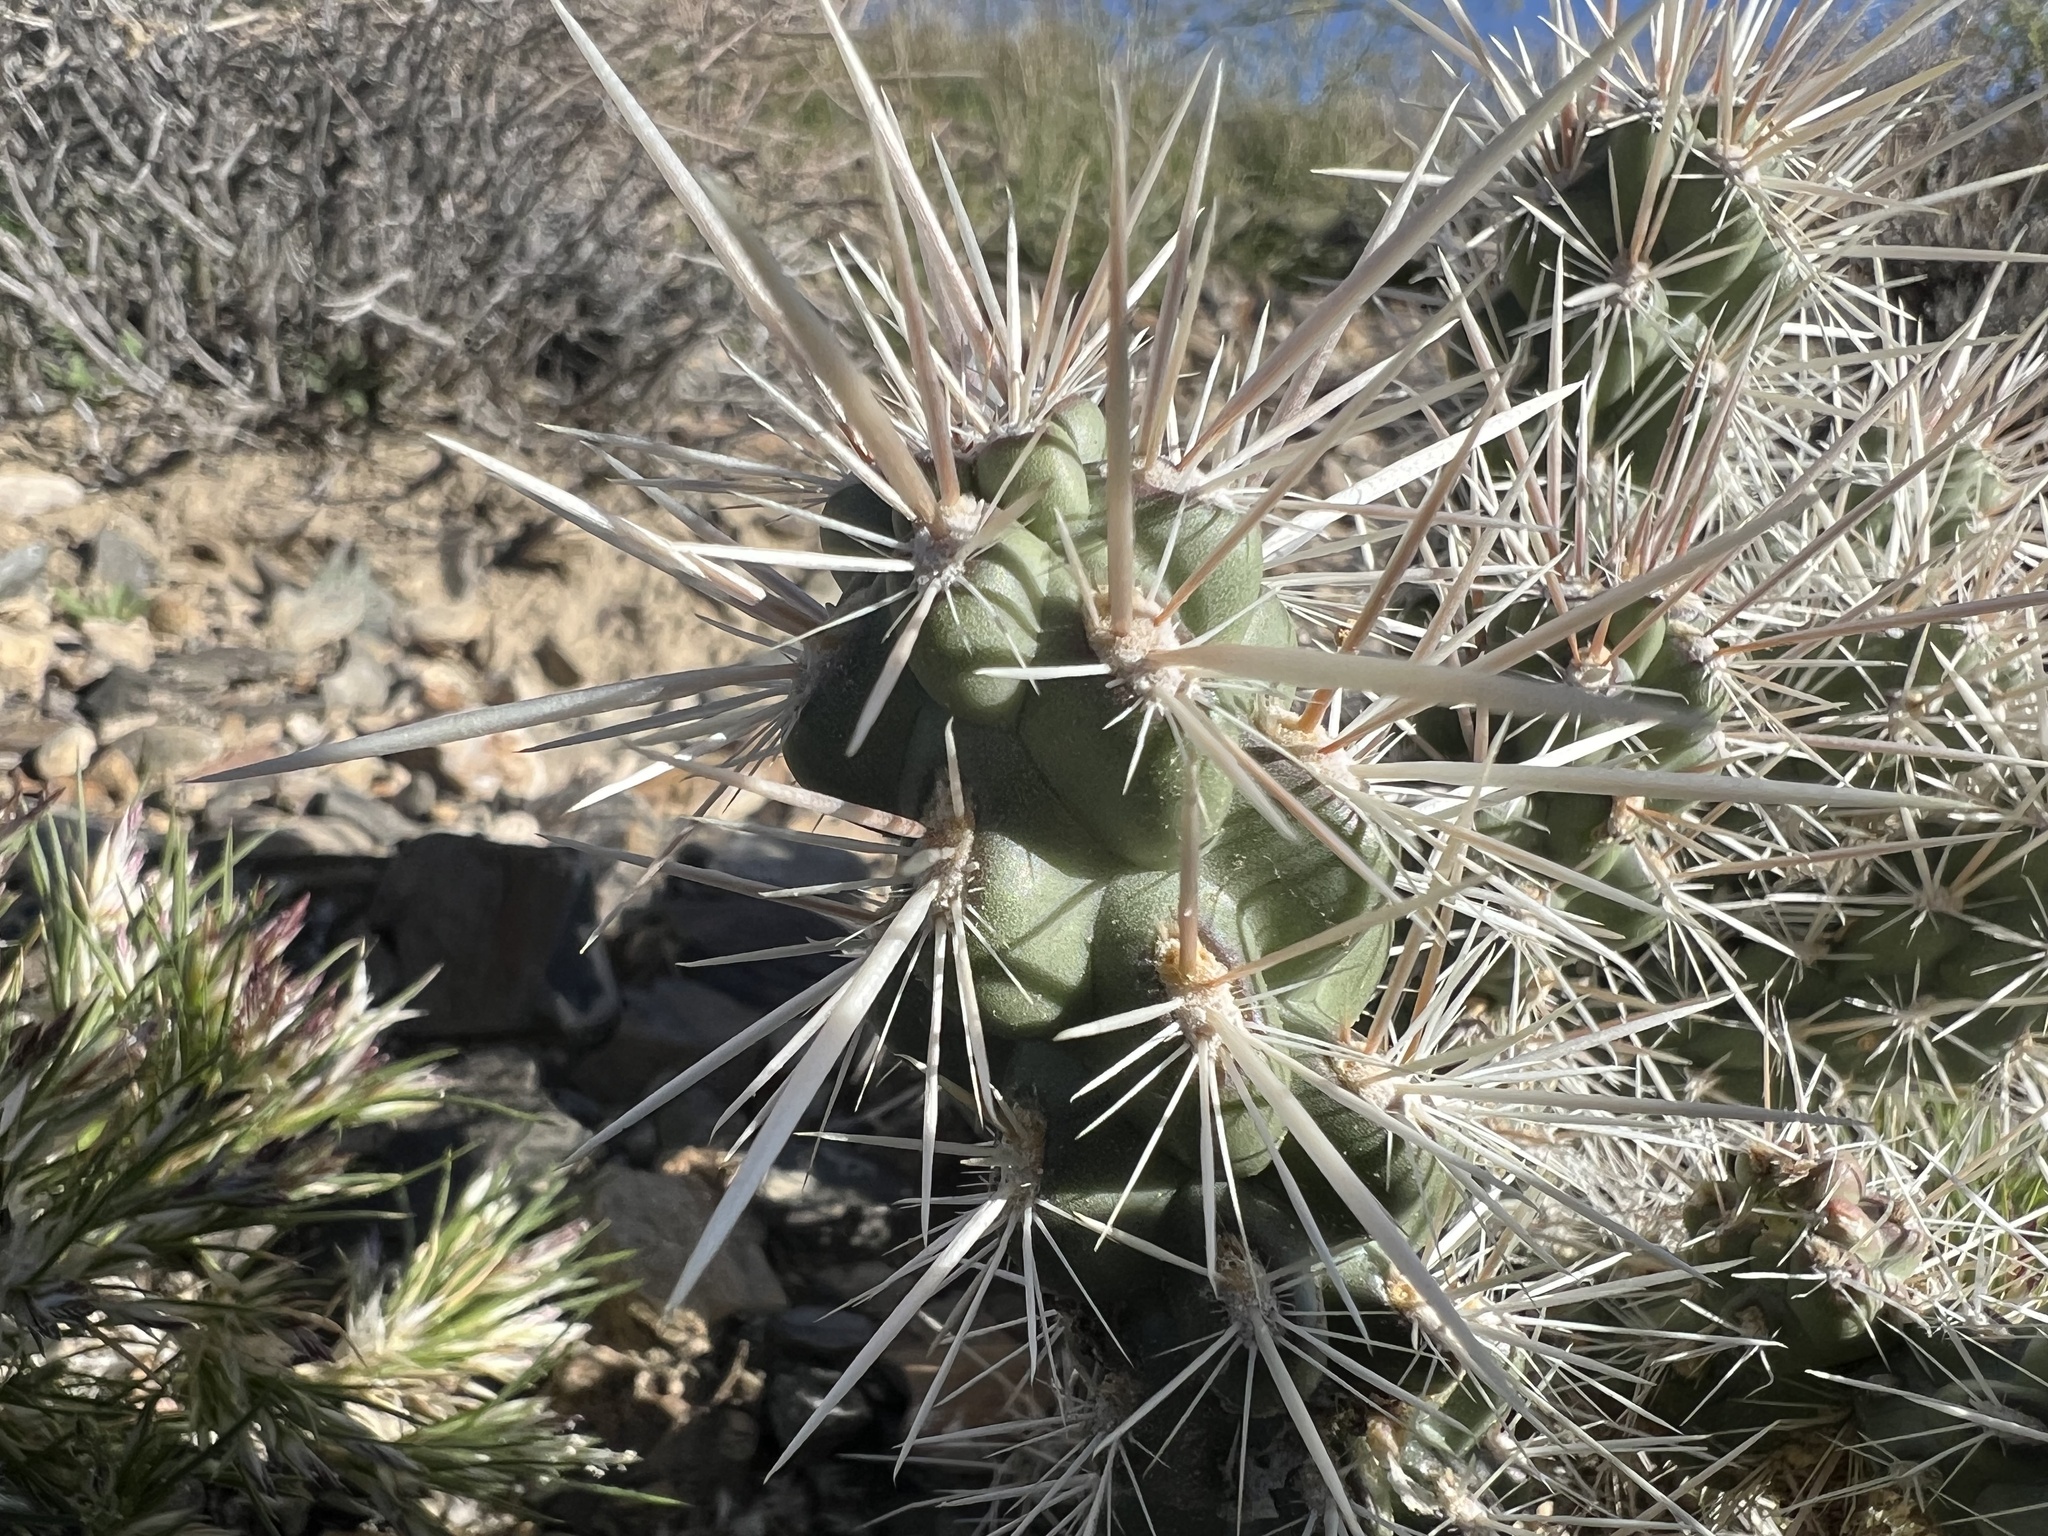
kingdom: Plantae
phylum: Tracheophyta
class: Magnoliopsida
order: Caryophyllales
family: Cactaceae
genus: Cylindropuntia
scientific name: Cylindropuntia echinocarpa
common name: Ground cholla
